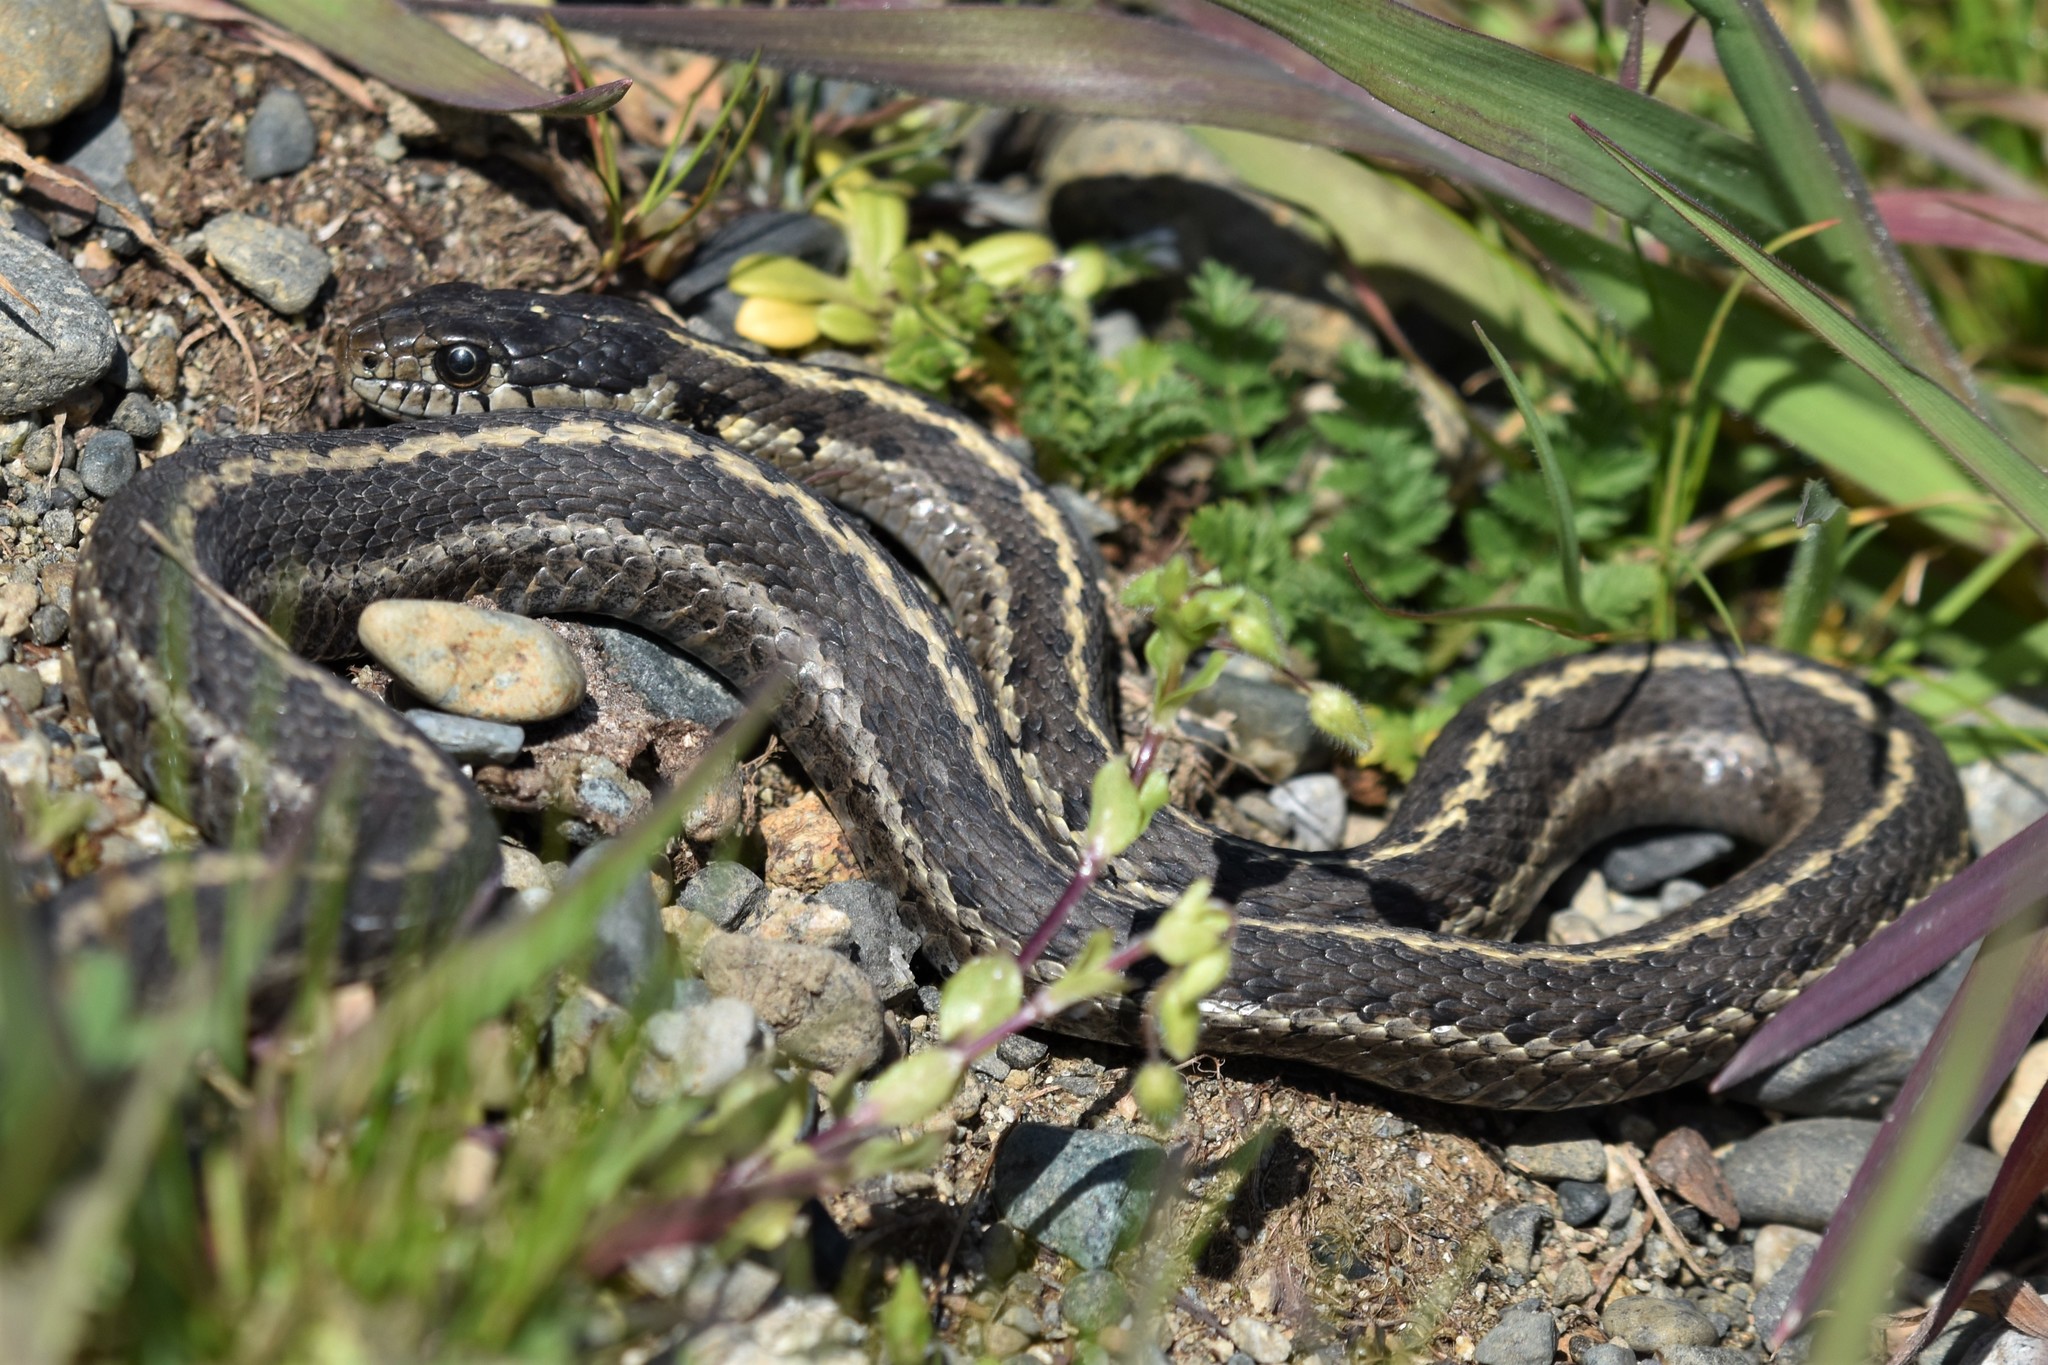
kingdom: Animalia
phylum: Chordata
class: Squamata
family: Colubridae
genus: Thamnophis
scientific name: Thamnophis elegans
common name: Western terrestrial garter snake
